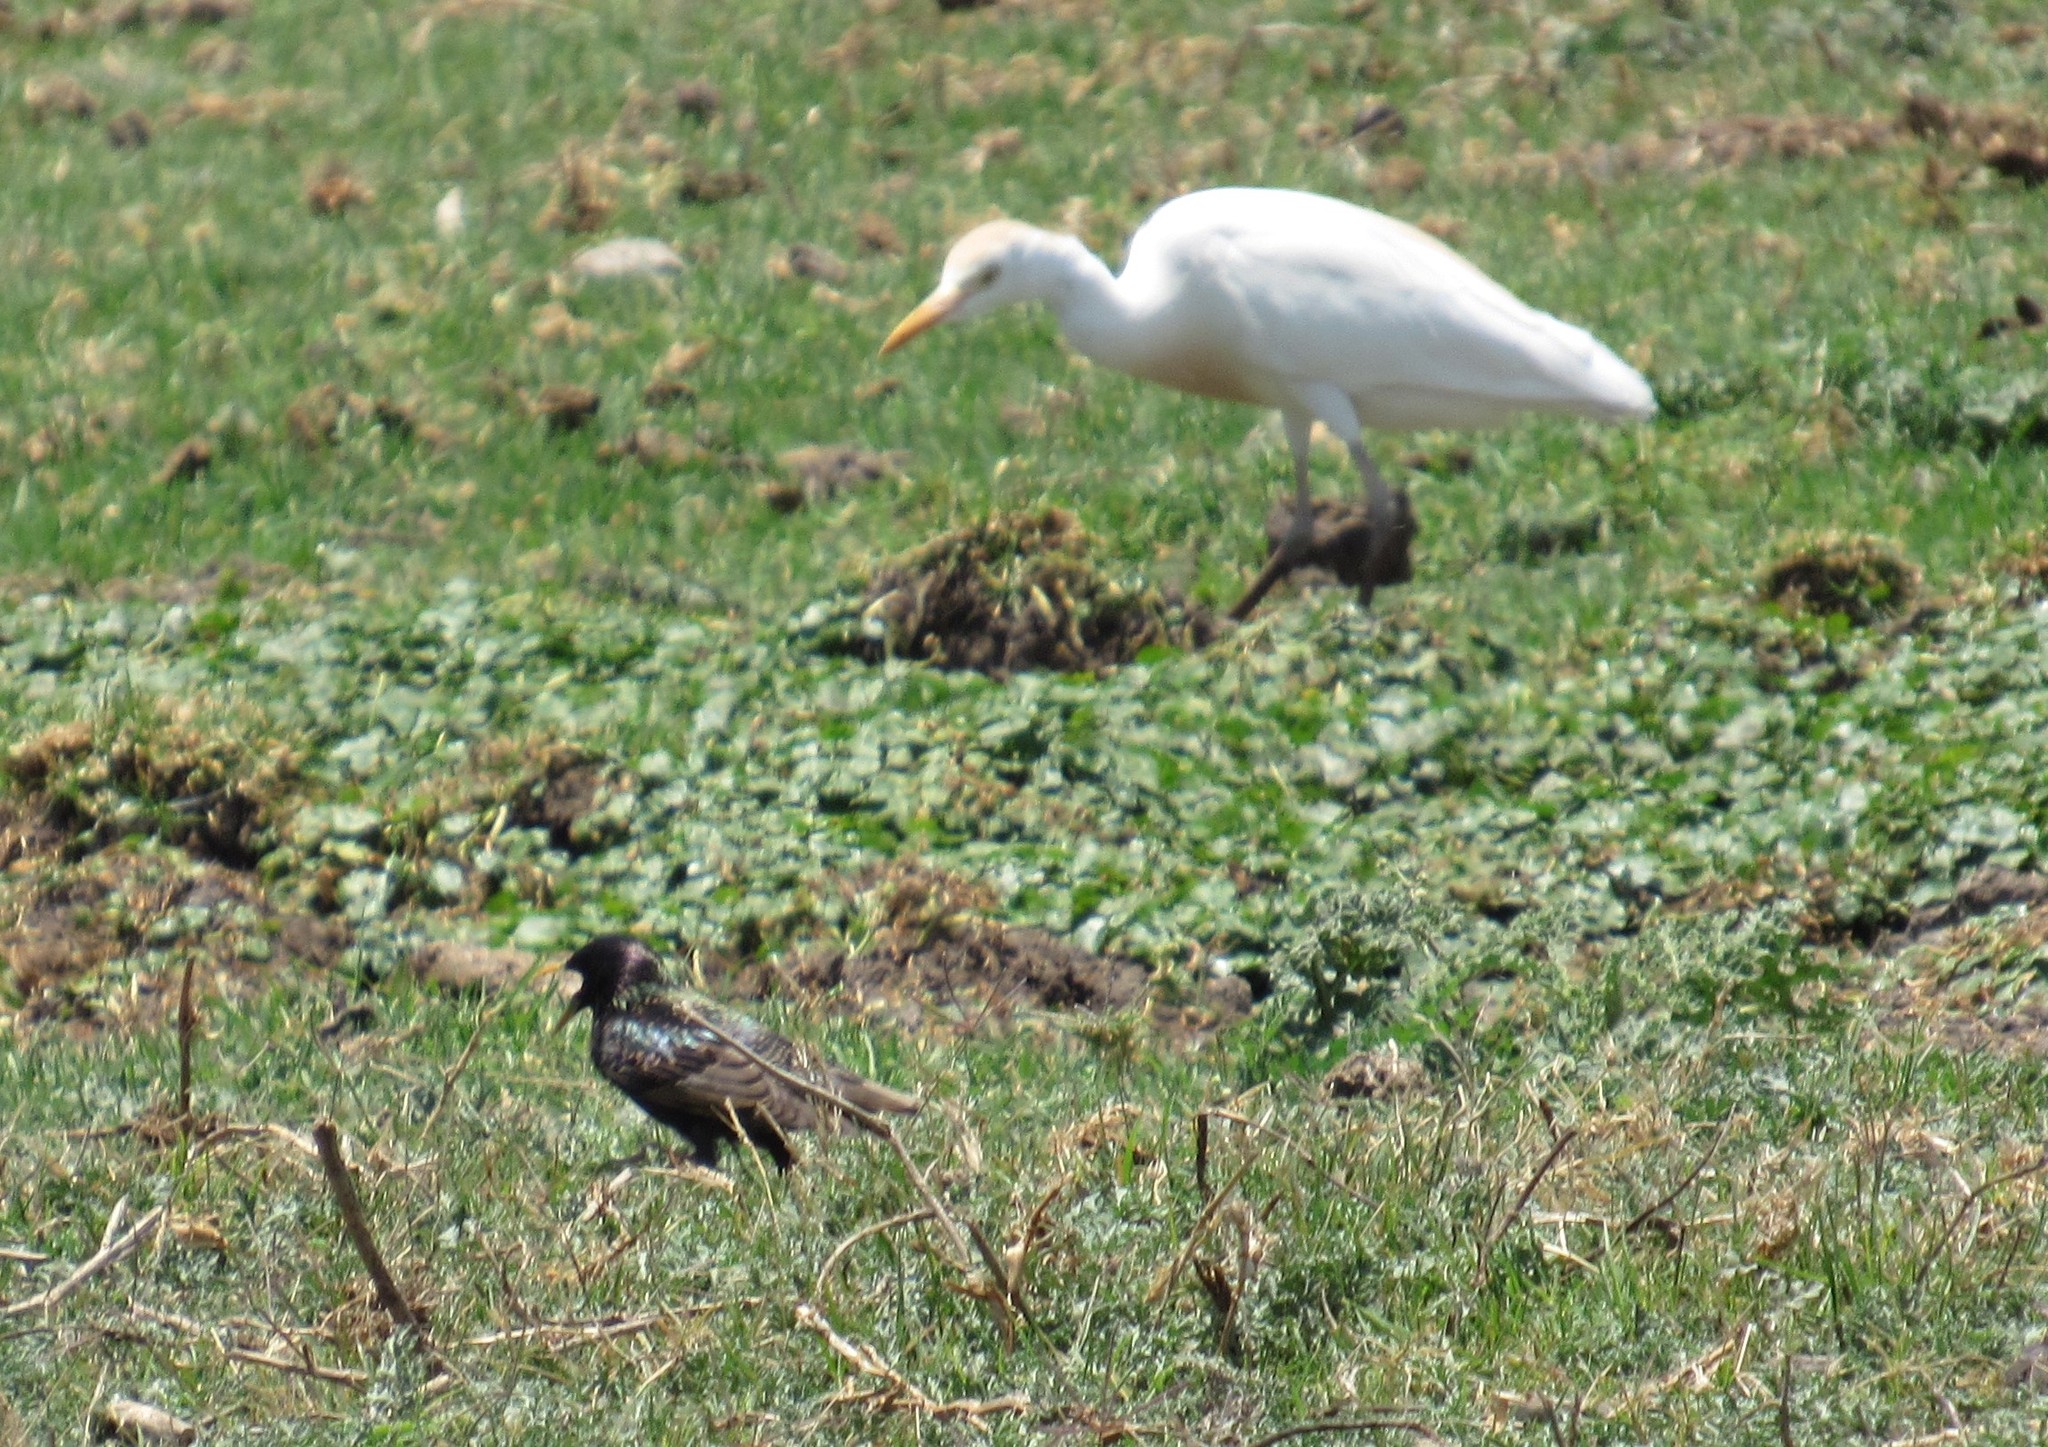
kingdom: Animalia
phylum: Chordata
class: Aves
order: Passeriformes
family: Sturnidae
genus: Sturnus
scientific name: Sturnus vulgaris
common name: Common starling
